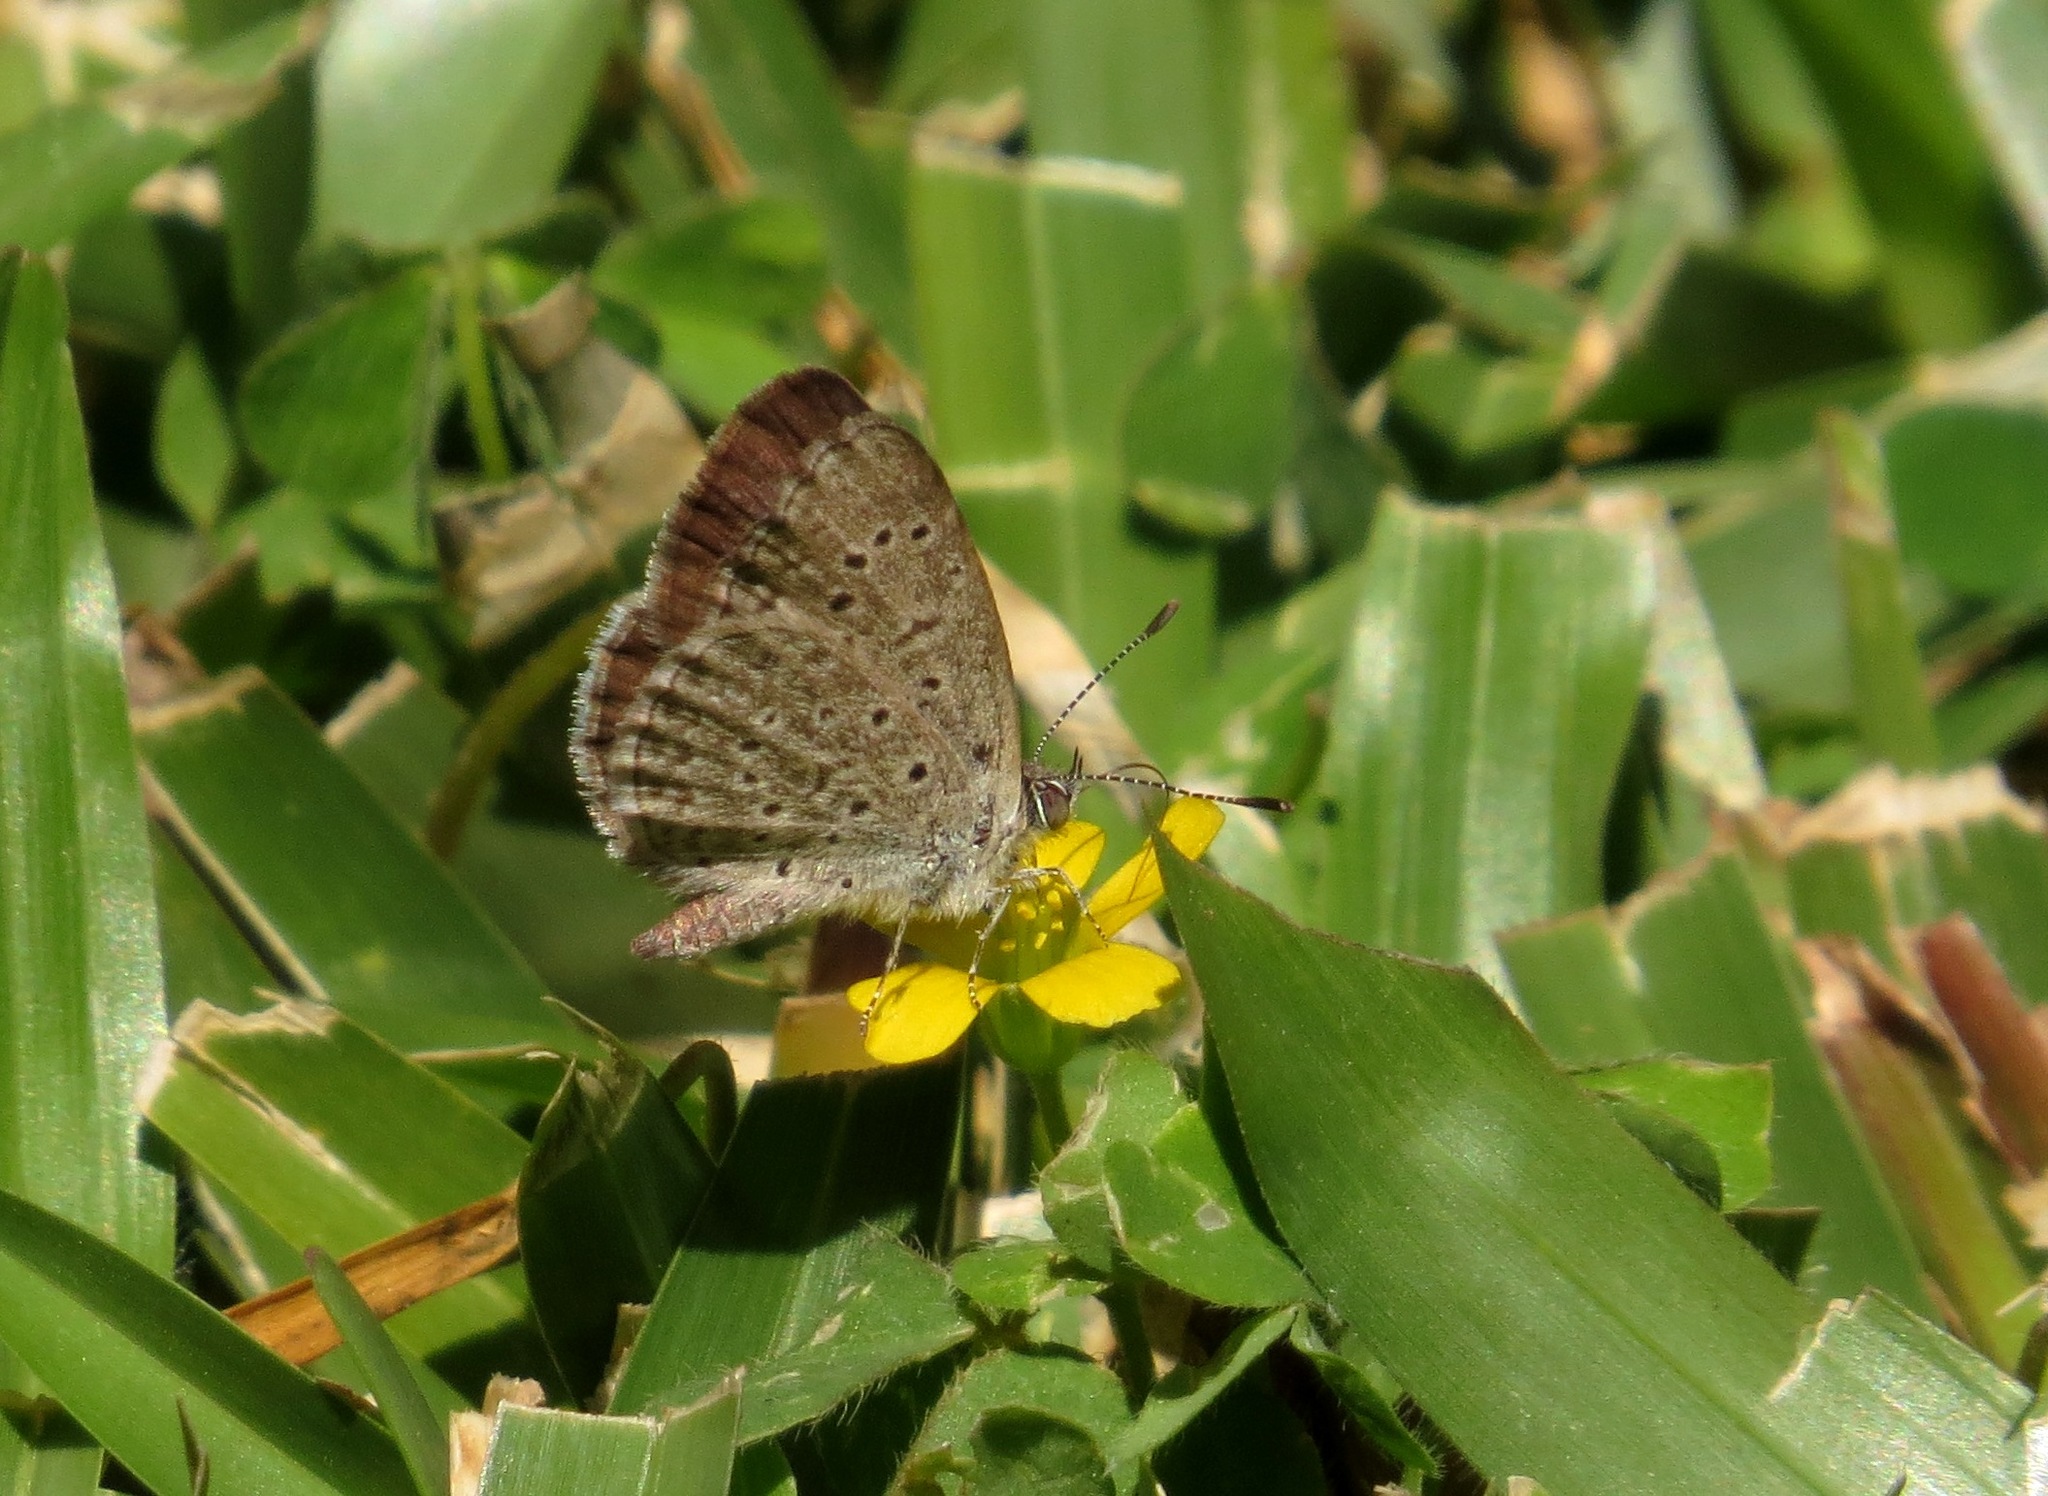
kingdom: Animalia
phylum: Arthropoda
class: Insecta
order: Lepidoptera
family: Lycaenidae
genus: Zizeeria
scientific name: Zizeeria knysna
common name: African grass blue
